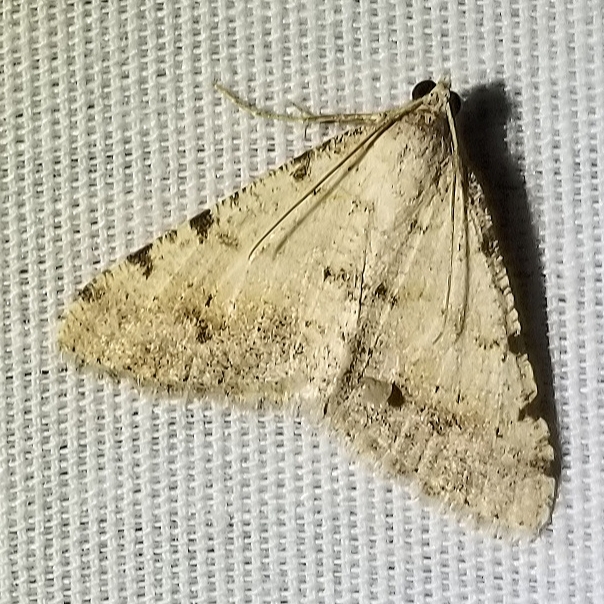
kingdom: Animalia
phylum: Arthropoda
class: Insecta
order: Lepidoptera
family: Geometridae
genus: Digrammia
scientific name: Digrammia colorata
